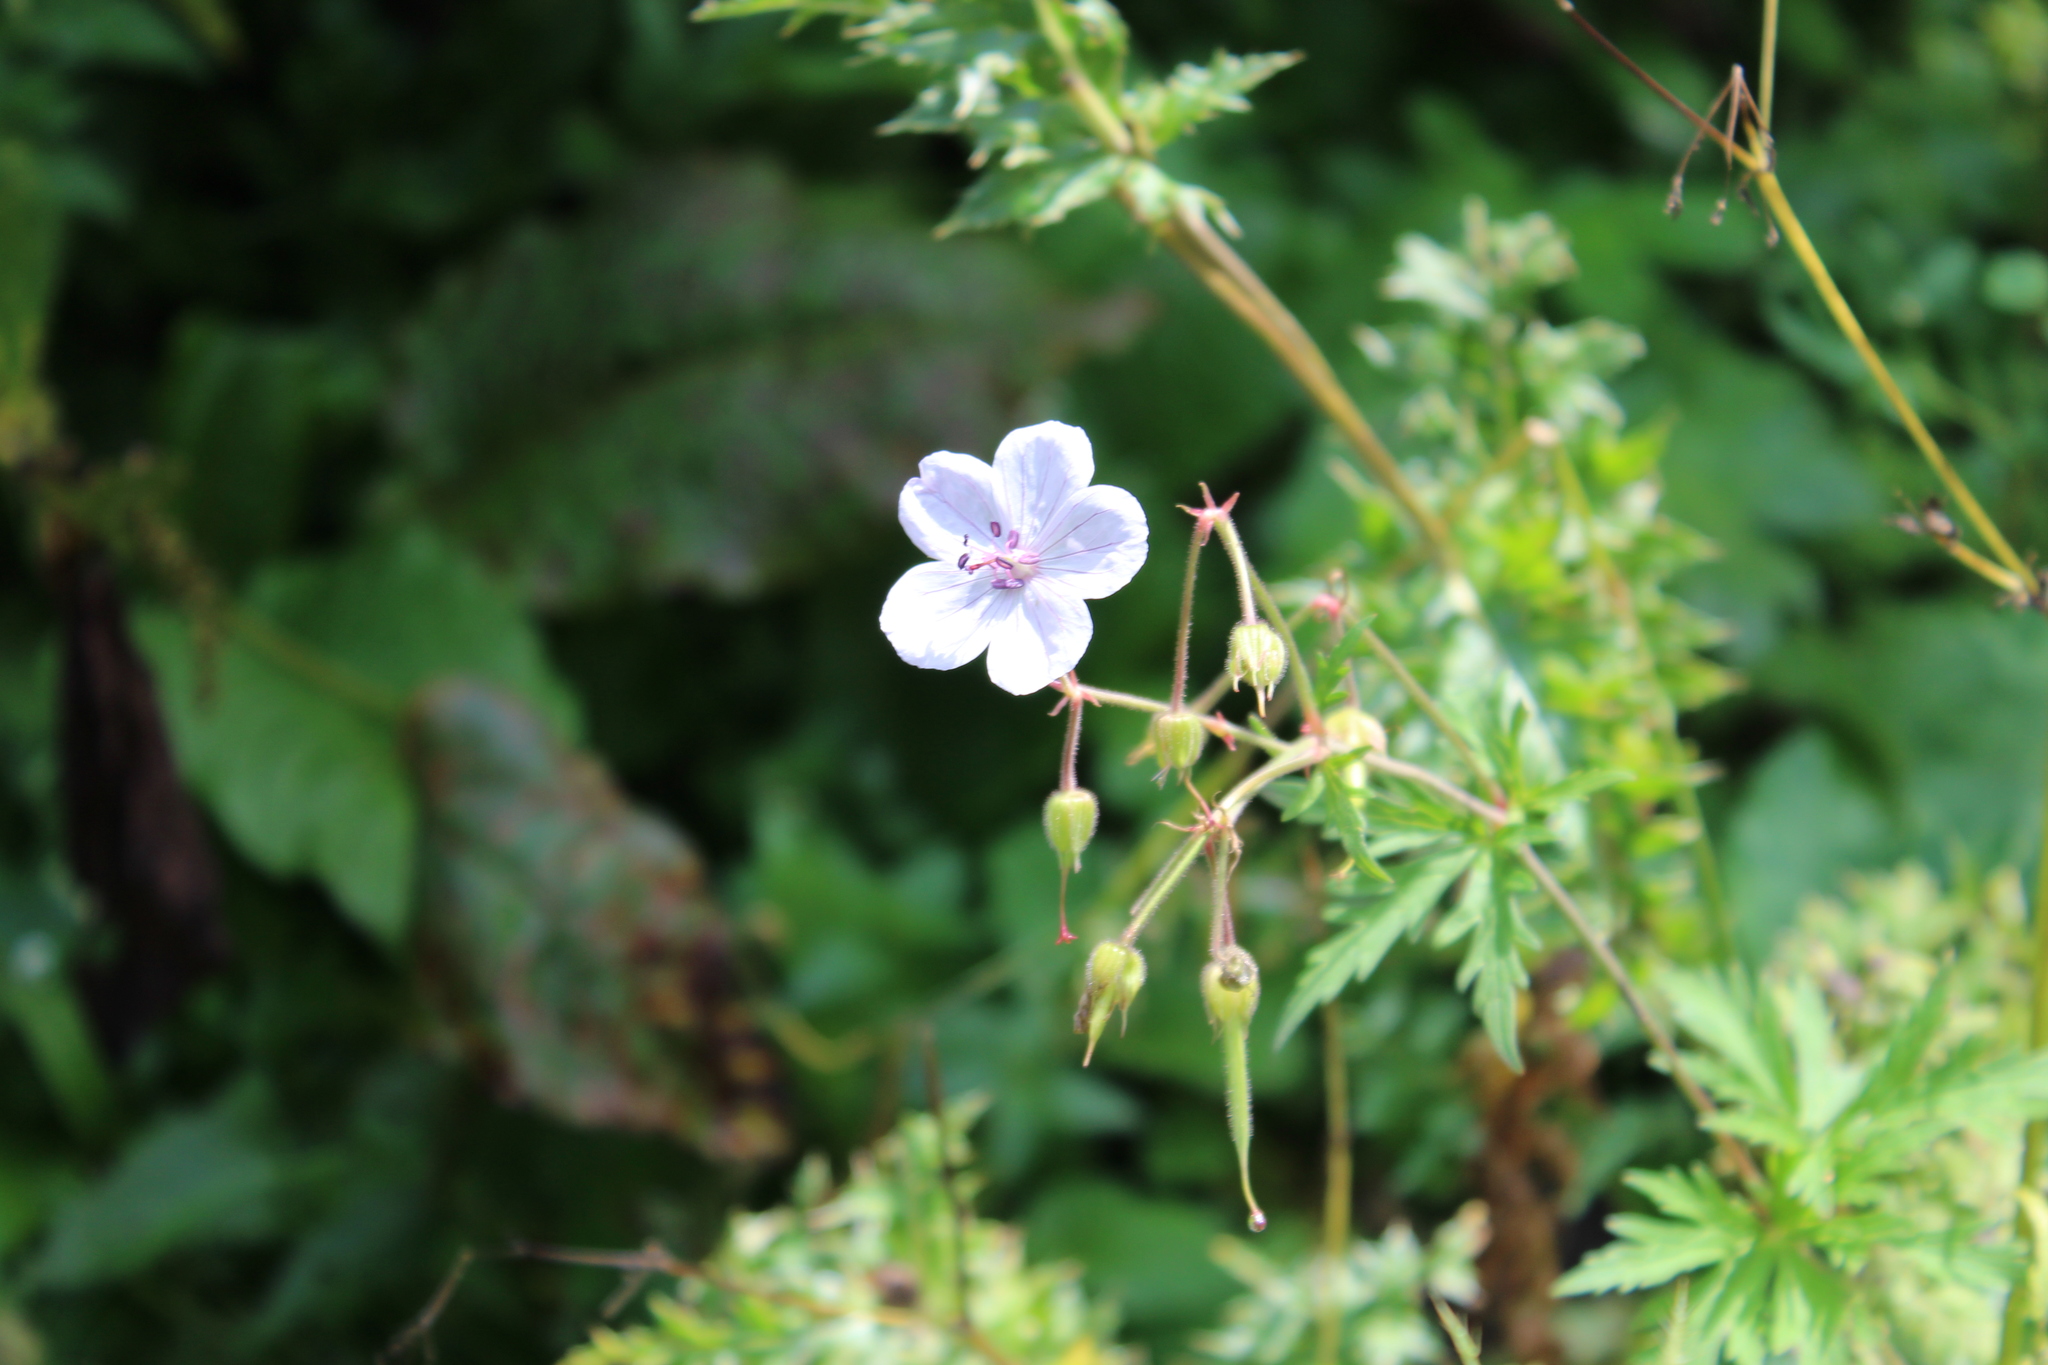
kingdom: Plantae
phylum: Tracheophyta
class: Magnoliopsida
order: Geraniales
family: Geraniaceae
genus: Geranium
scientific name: Geranium pratense
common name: Meadow crane's-bill
